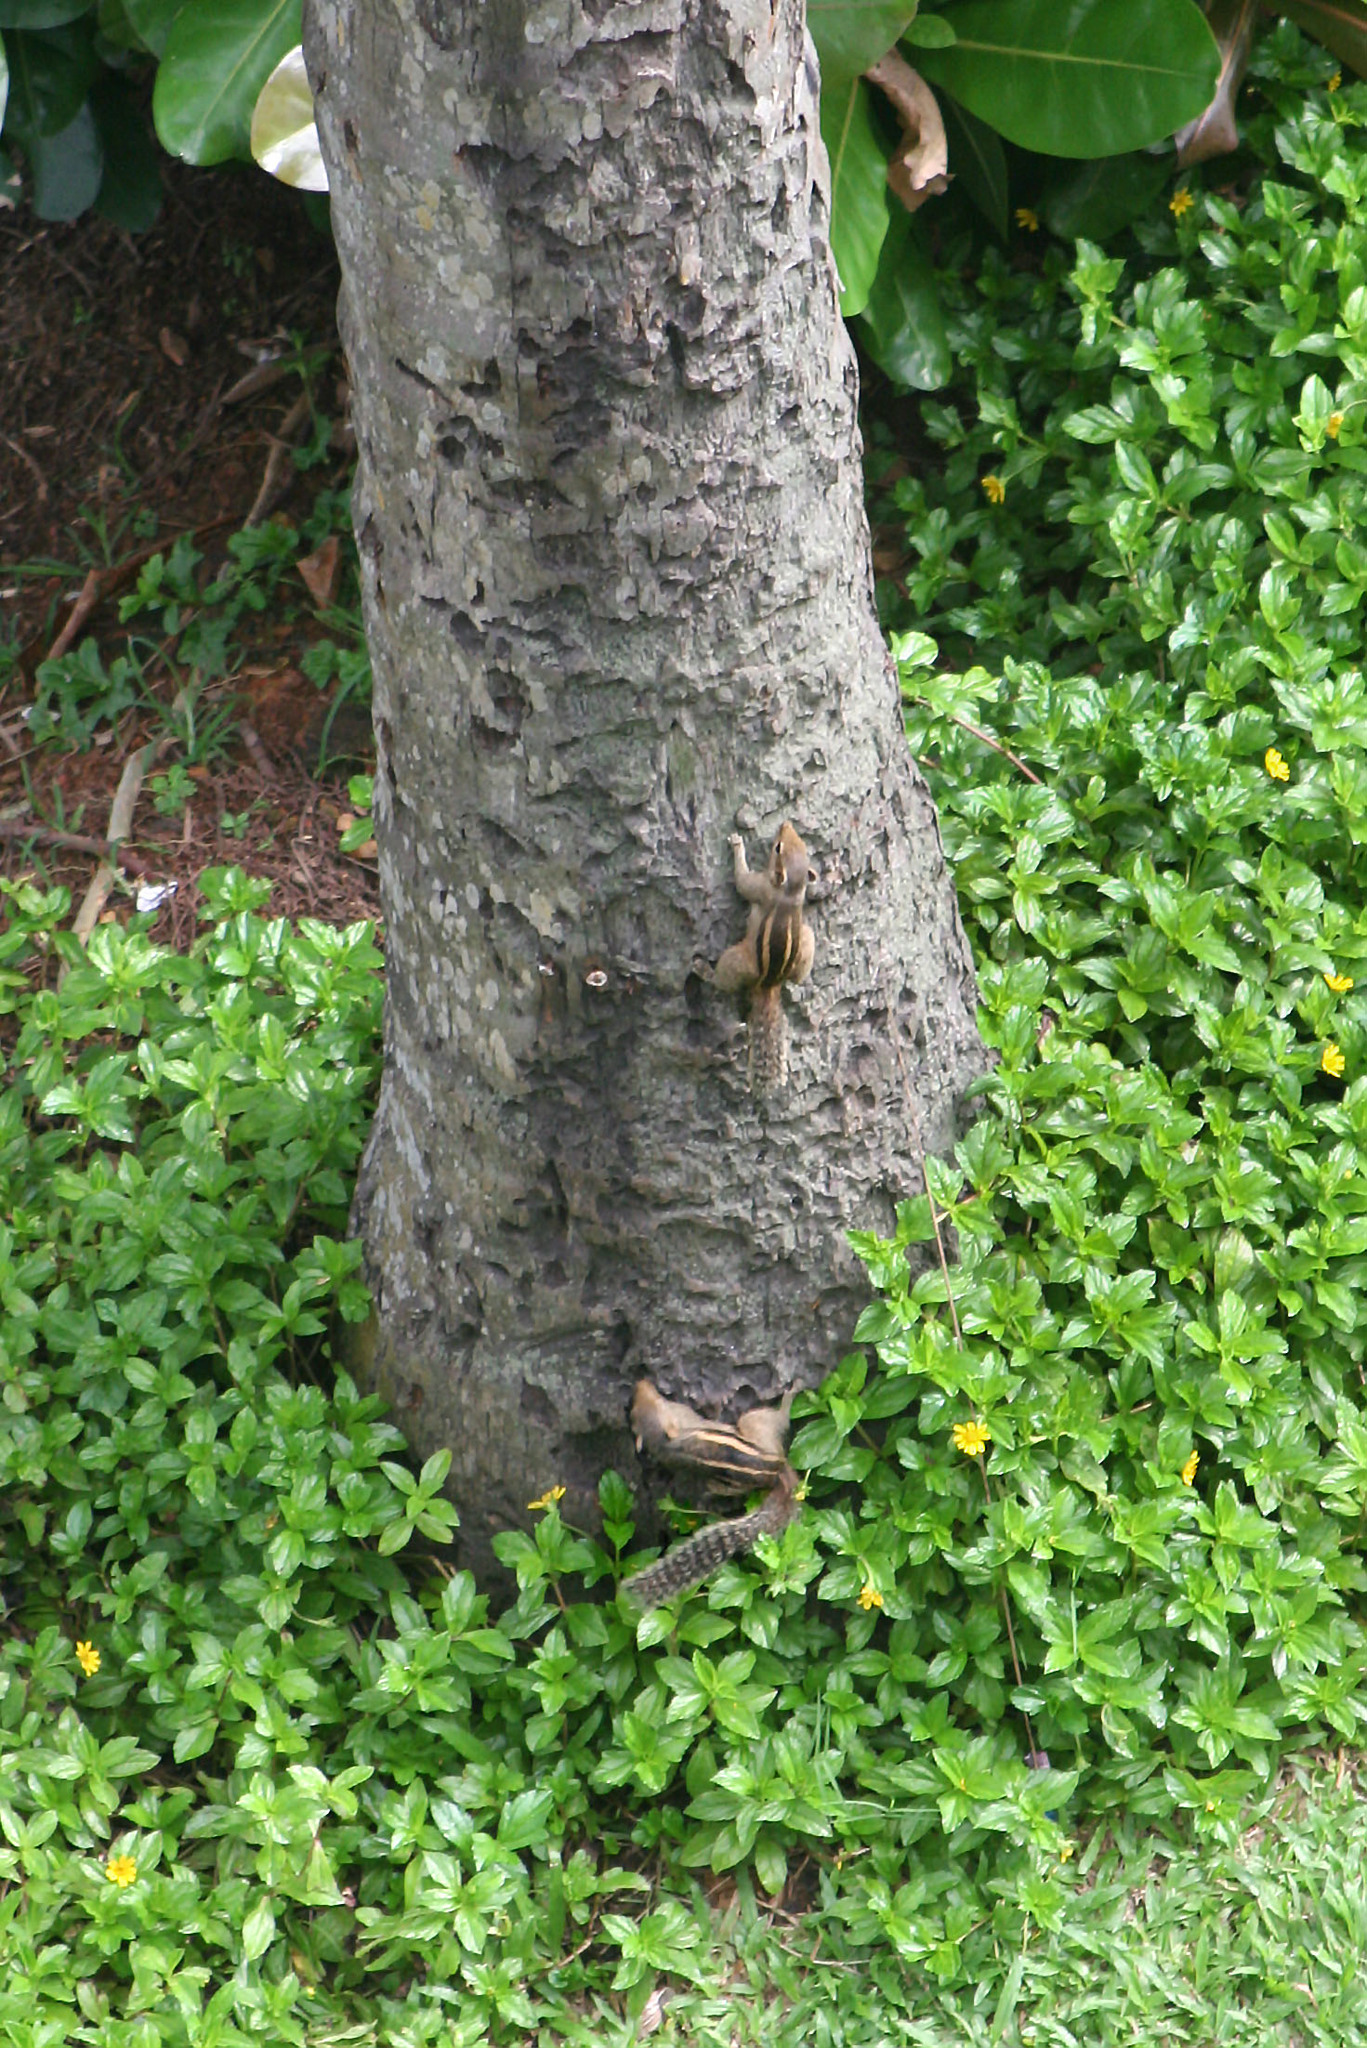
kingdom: Animalia
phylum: Chordata
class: Mammalia
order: Rodentia
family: Sciuridae
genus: Funambulus
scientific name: Funambulus palmarum
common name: Indian palm squirrel
